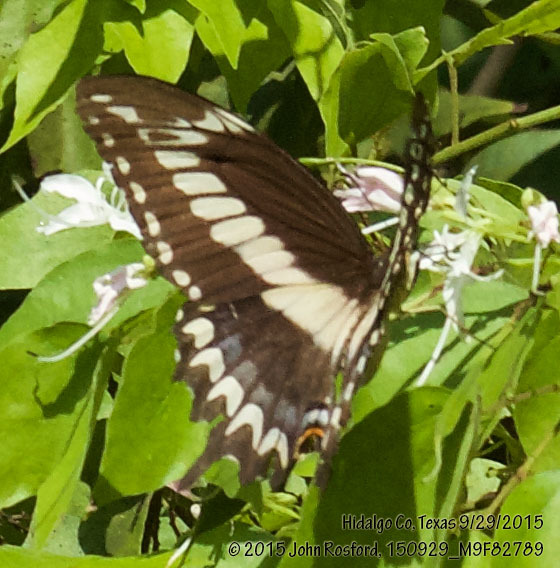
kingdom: Animalia
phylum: Arthropoda
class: Insecta
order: Lepidoptera
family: Papilionidae
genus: Papilio
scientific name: Papilio ornythion
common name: Ornythion swallowtail
